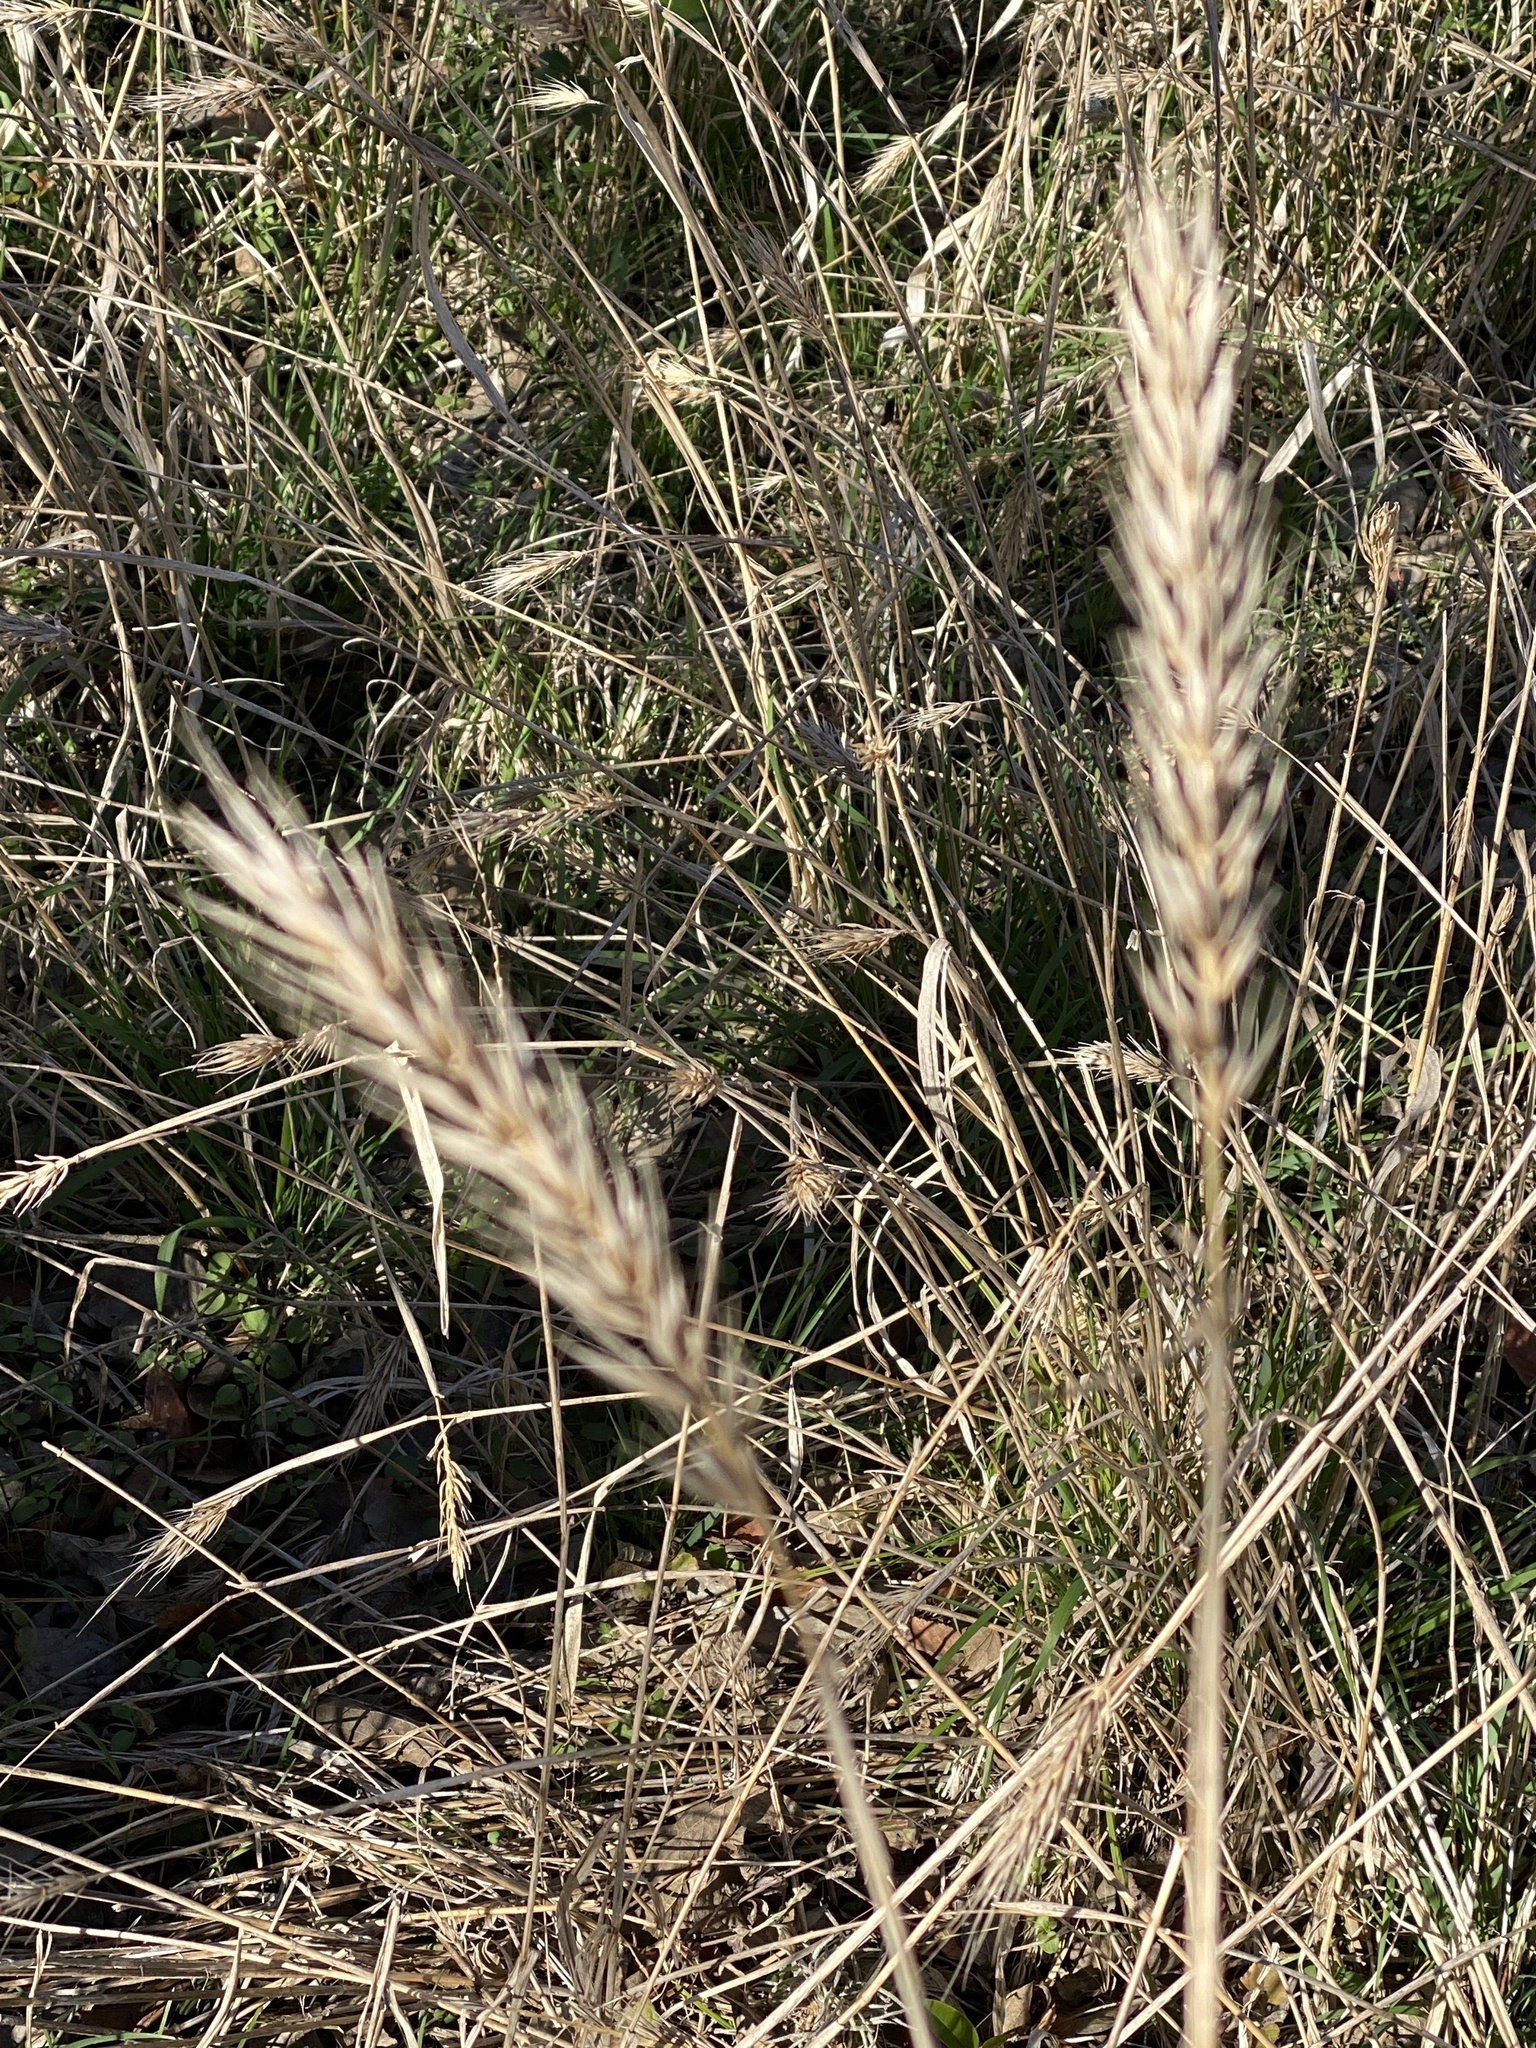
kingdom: Plantae
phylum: Tracheophyta
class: Liliopsida
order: Poales
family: Poaceae
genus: Elymus
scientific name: Elymus virginicus
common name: Common eastern wildrye
